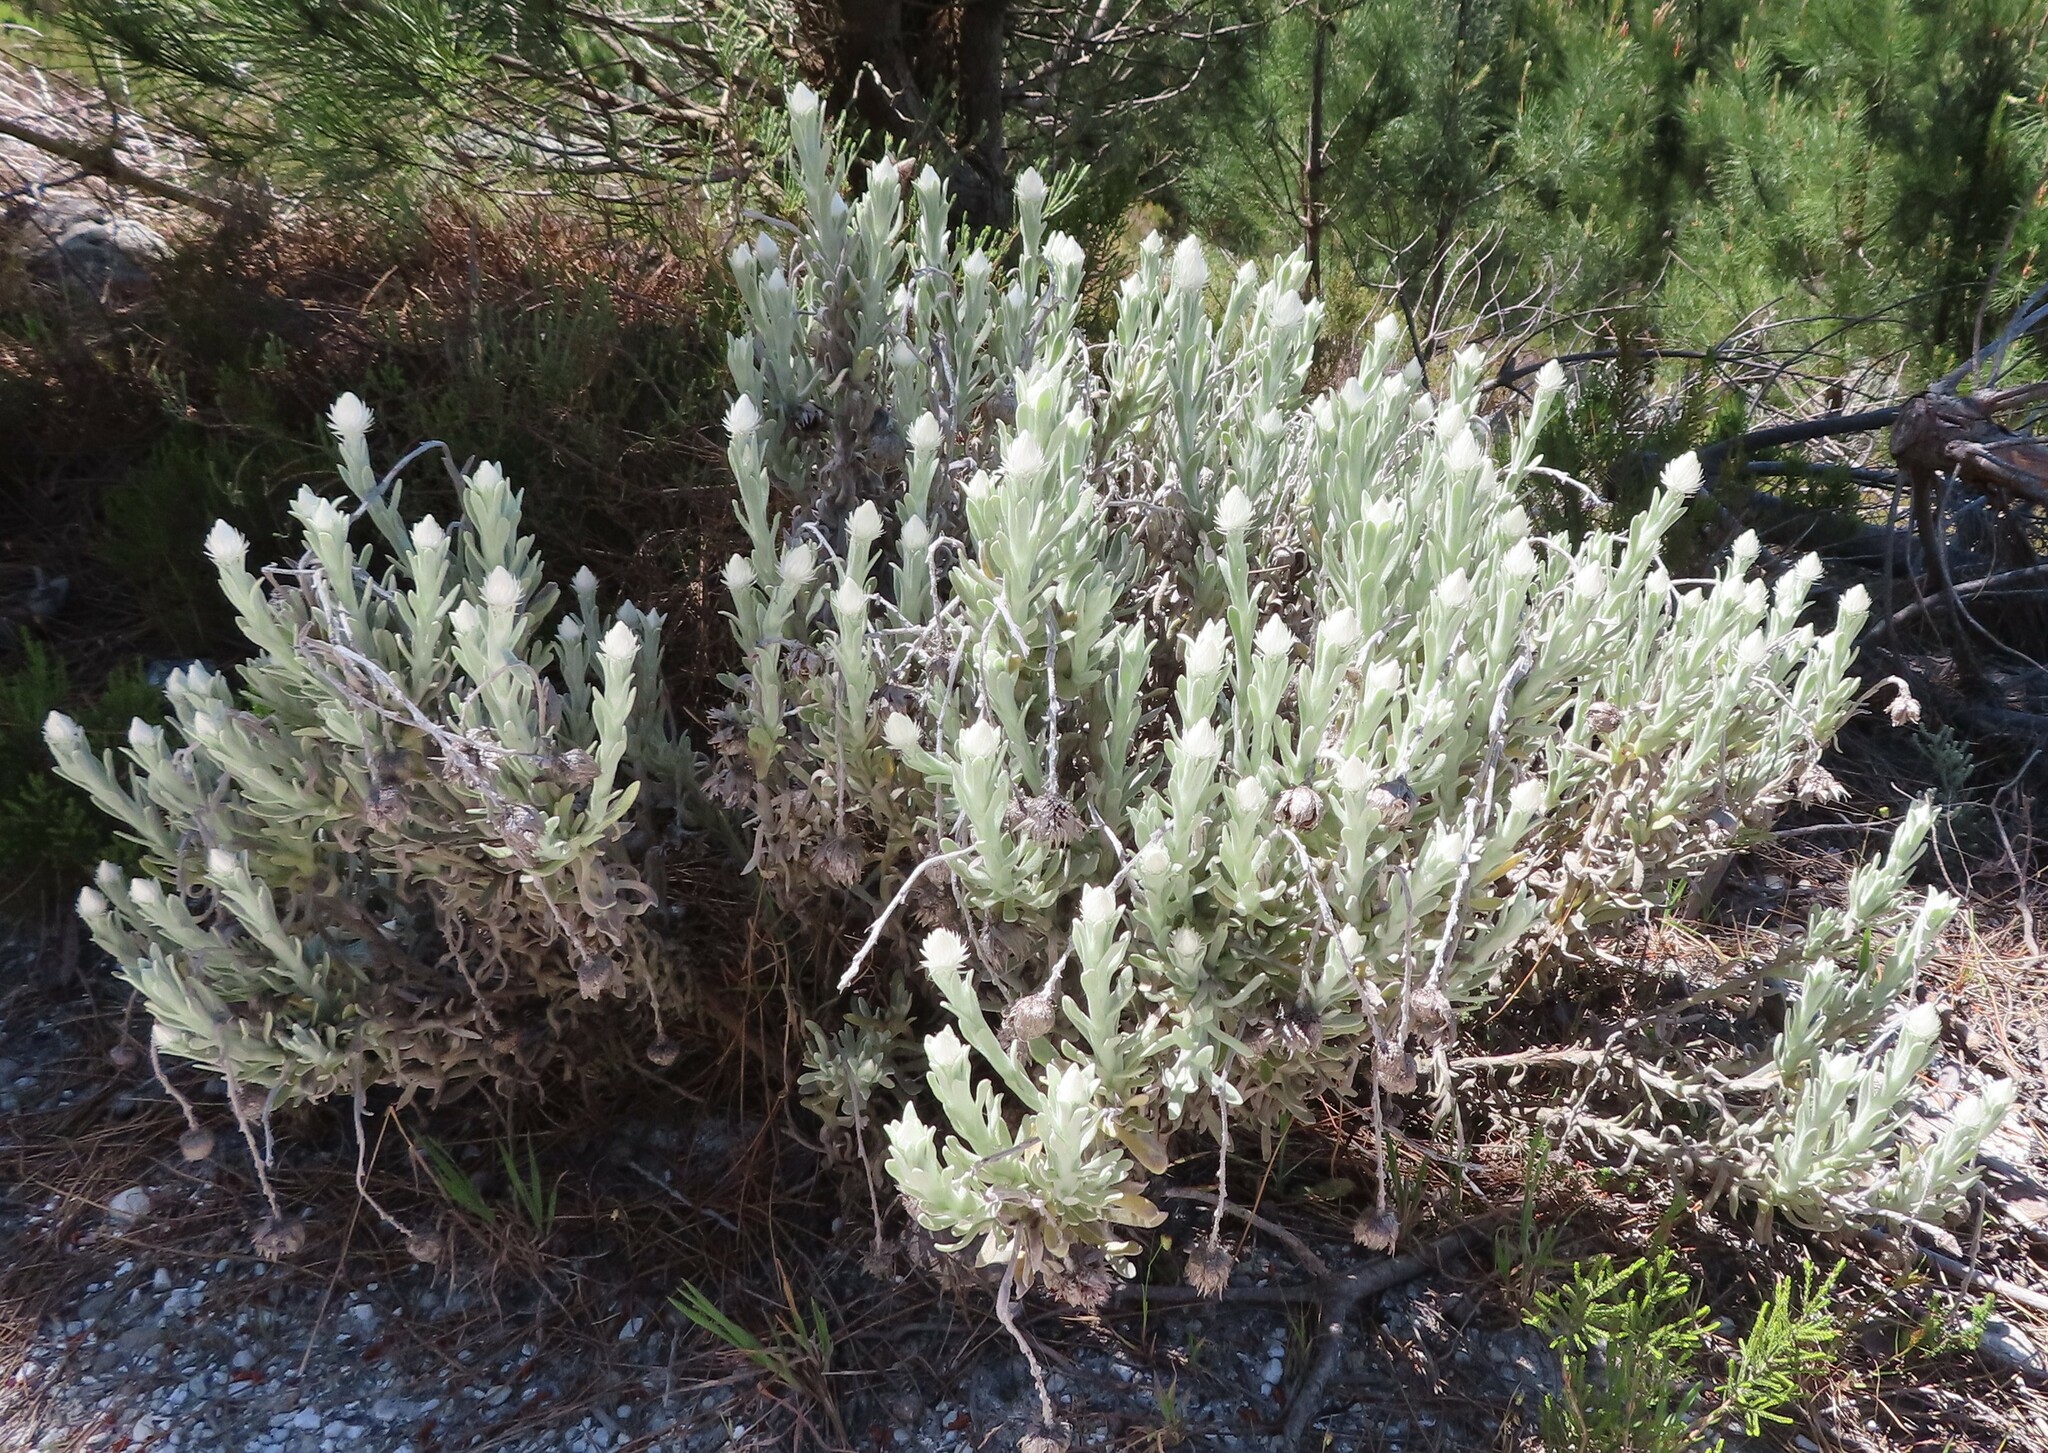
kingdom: Plantae
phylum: Tracheophyta
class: Magnoliopsida
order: Asterales
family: Asteraceae
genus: Syncarpha
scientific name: Syncarpha speciosissima
